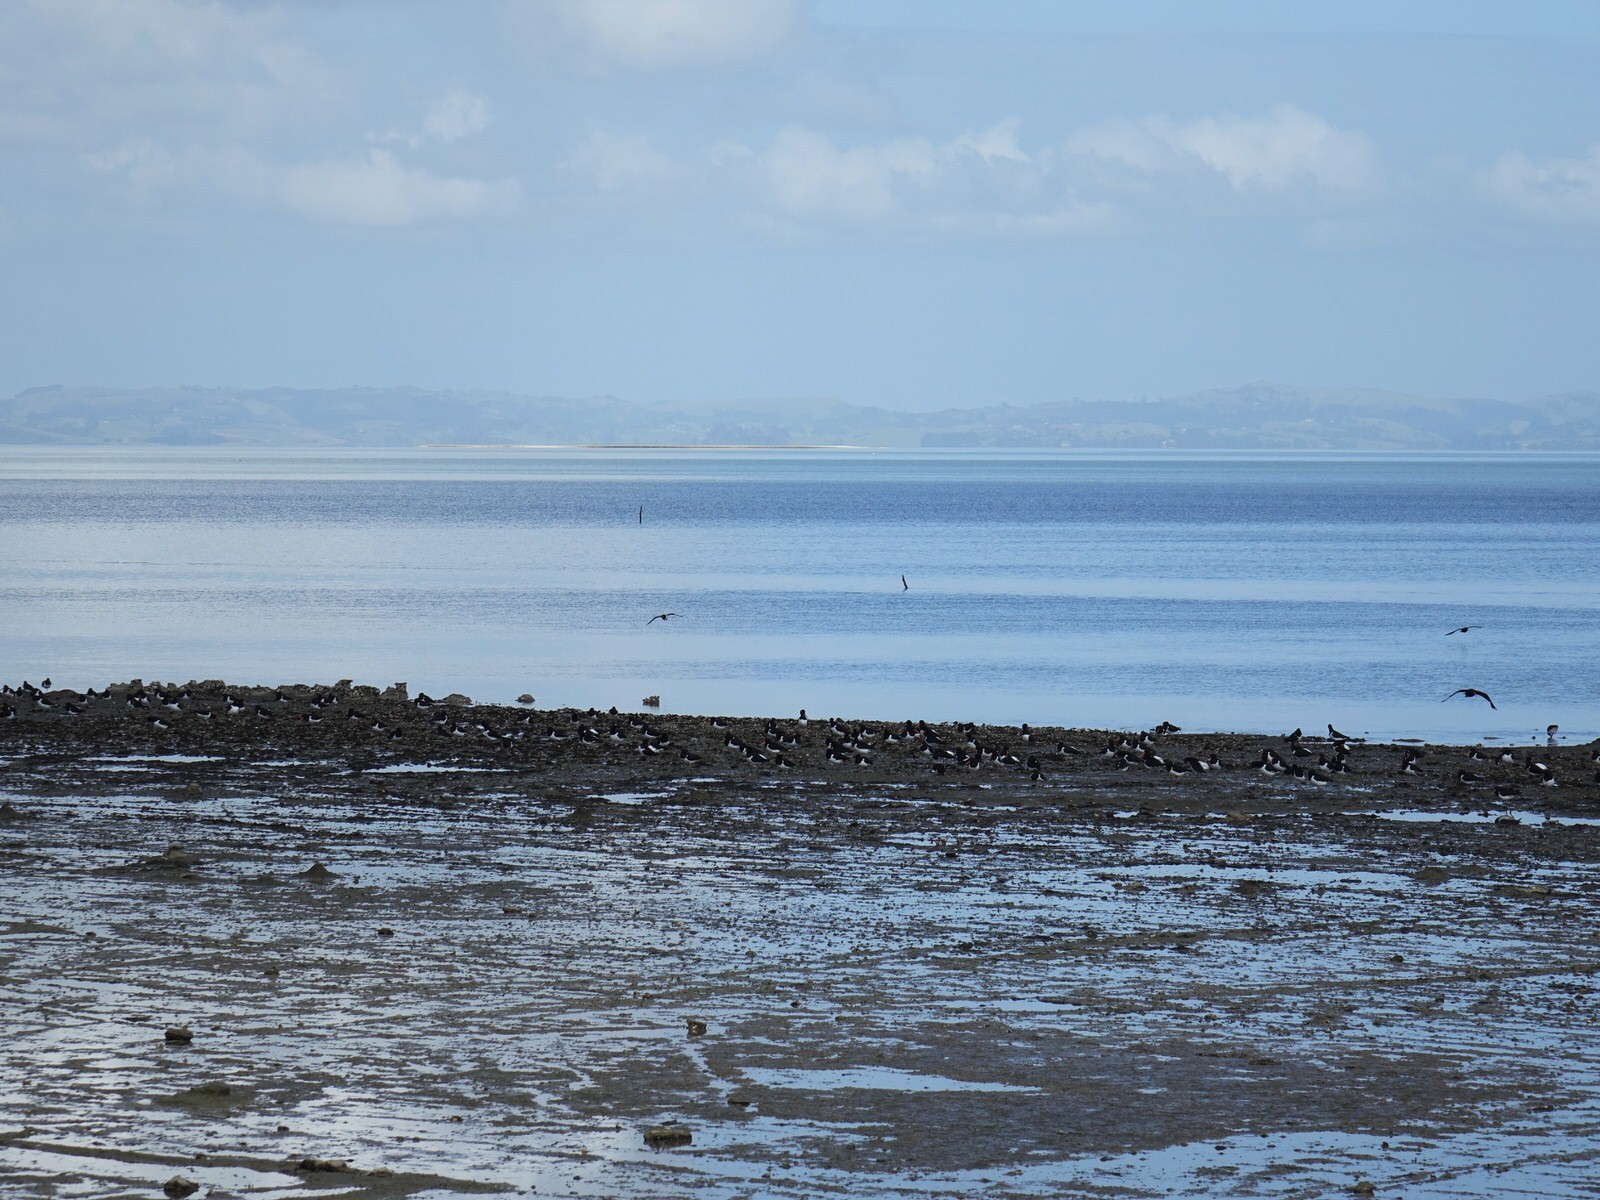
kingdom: Animalia
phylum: Chordata
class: Aves
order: Charadriiformes
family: Haematopodidae
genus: Haematopus
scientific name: Haematopus finschi
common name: South island oystercatcher
